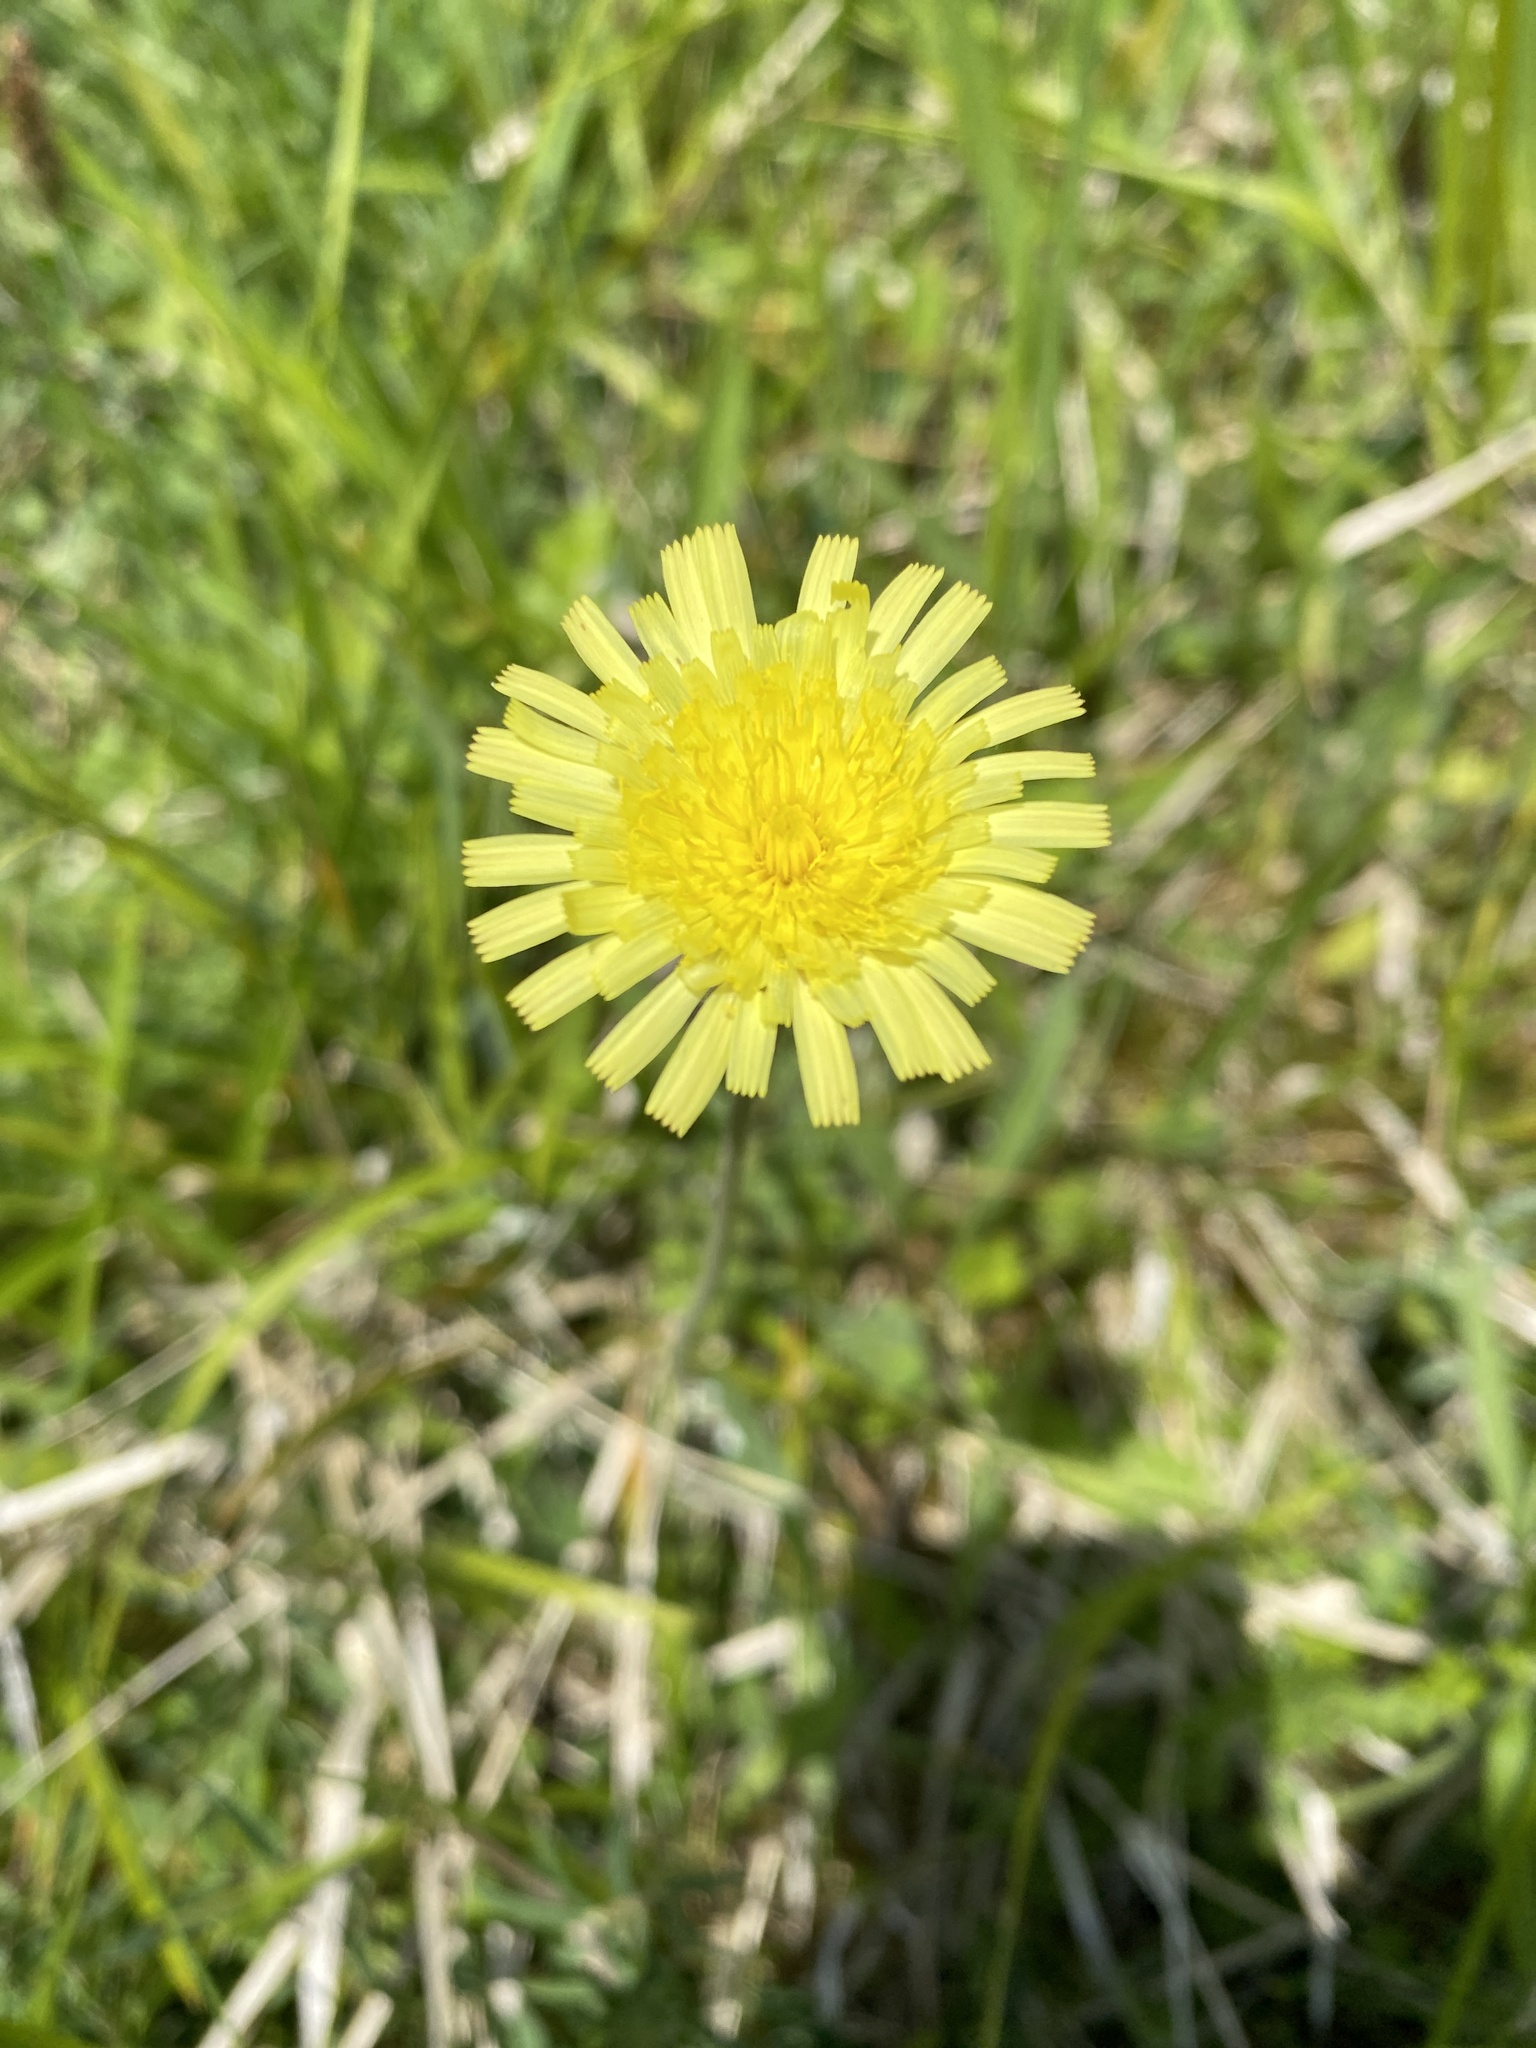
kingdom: Plantae
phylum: Tracheophyta
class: Magnoliopsida
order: Asterales
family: Asteraceae
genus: Pilosella
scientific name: Pilosella officinarum
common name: Mouse-ear hawkweed
